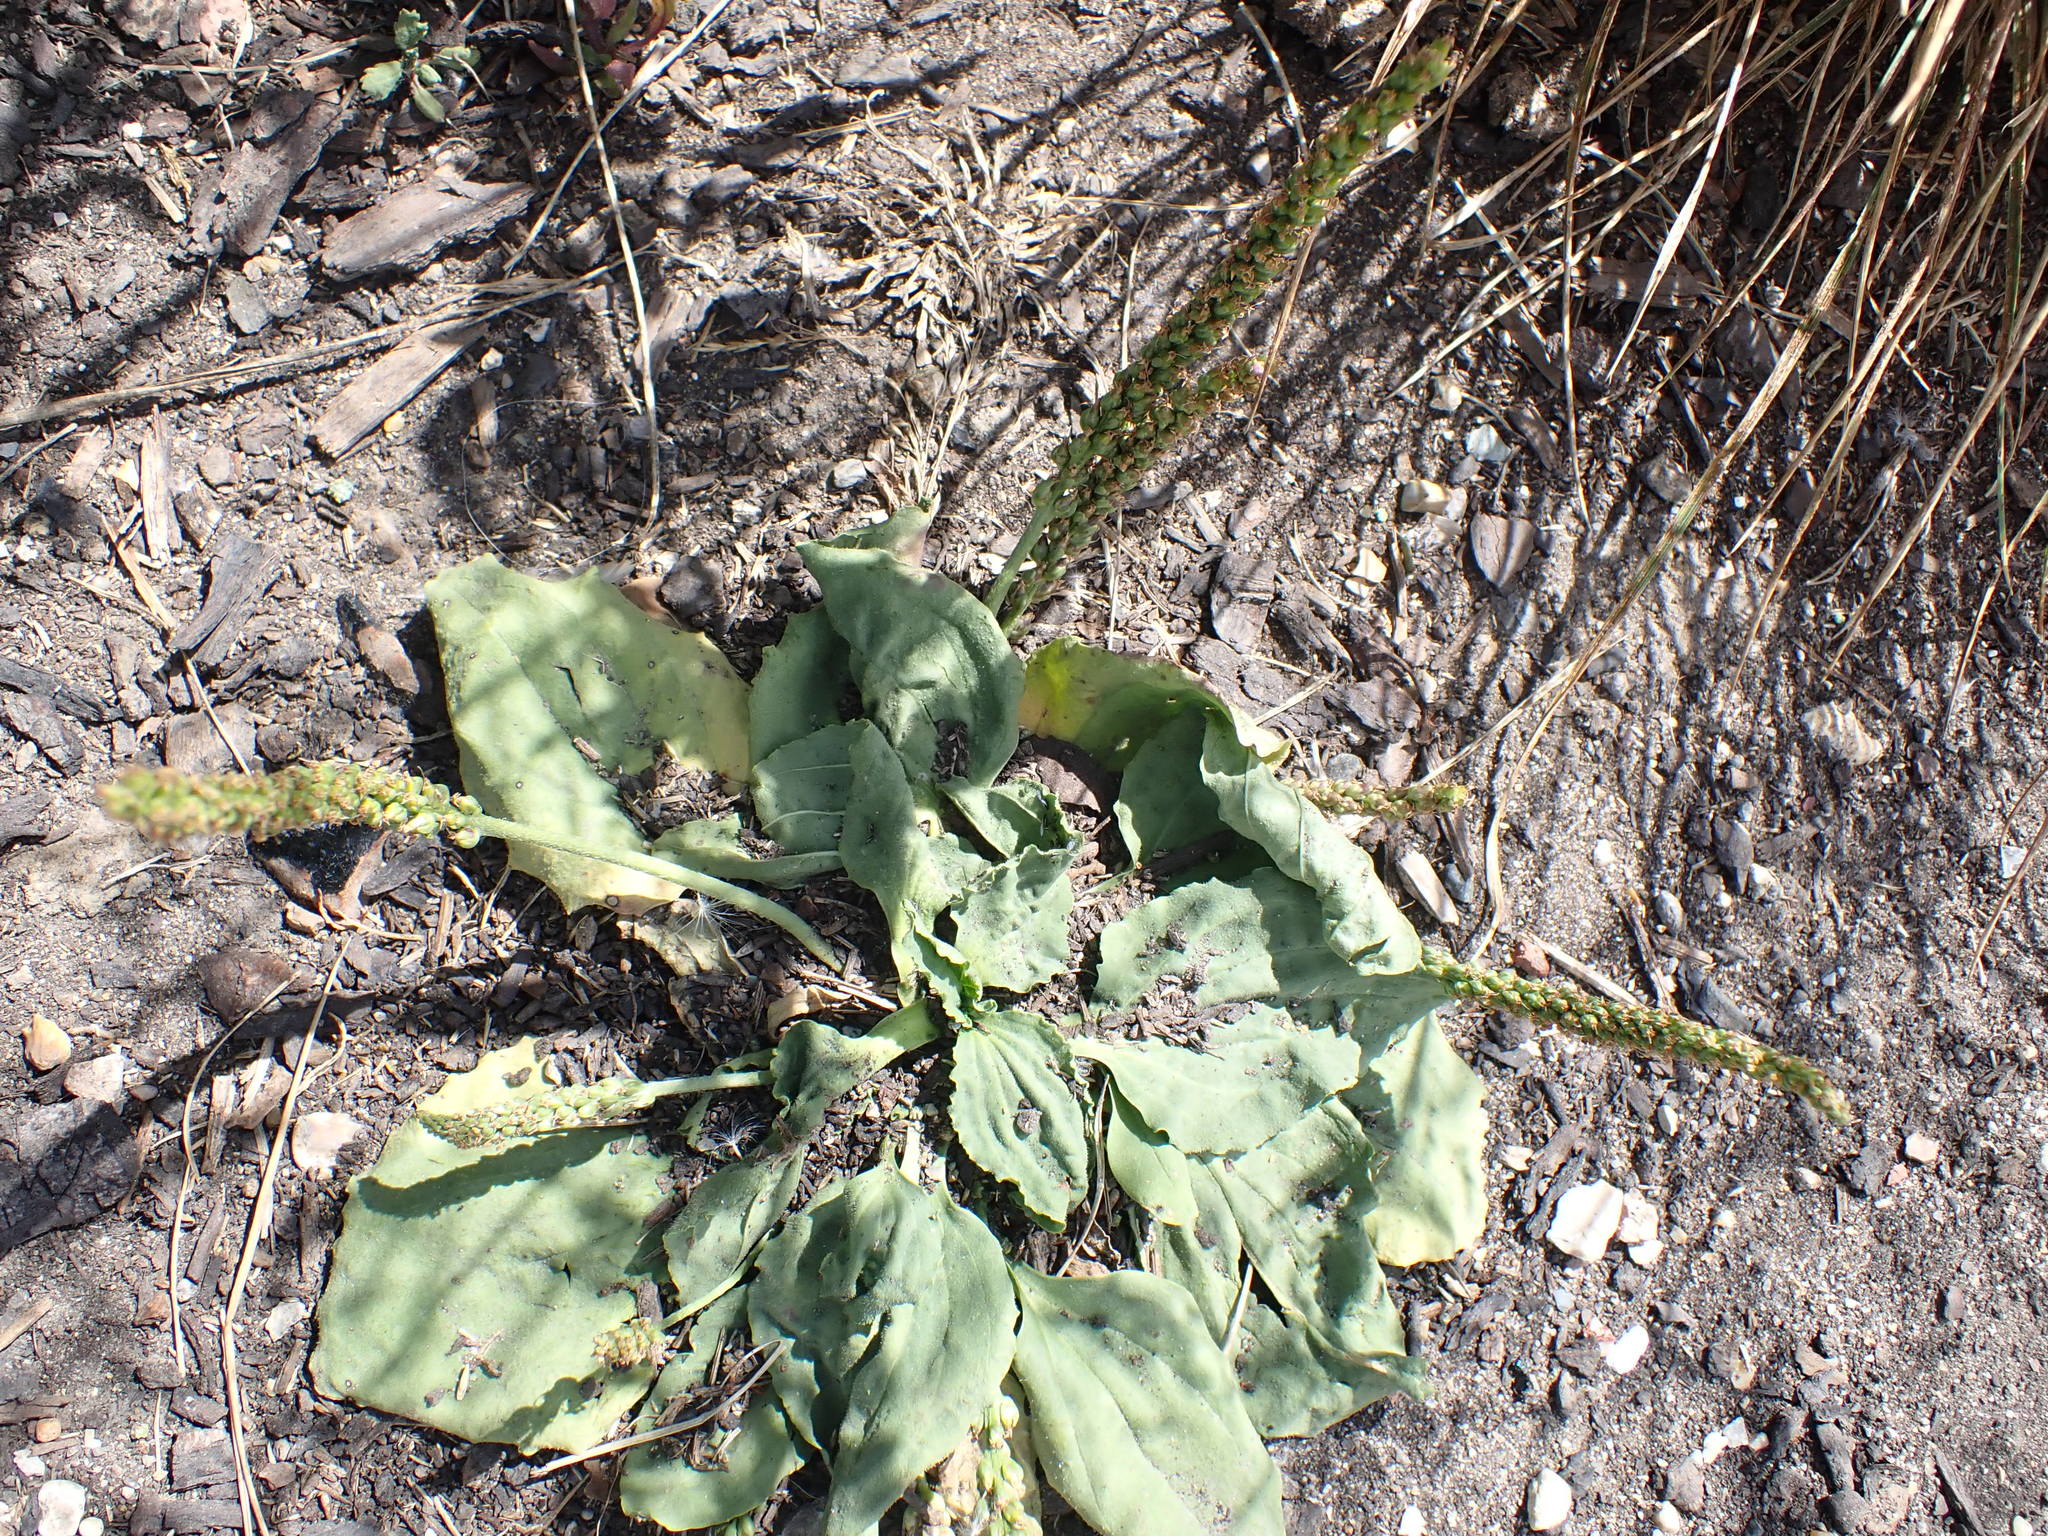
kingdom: Plantae
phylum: Tracheophyta
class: Magnoliopsida
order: Lamiales
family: Plantaginaceae
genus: Plantago
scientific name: Plantago major
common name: Common plantain
